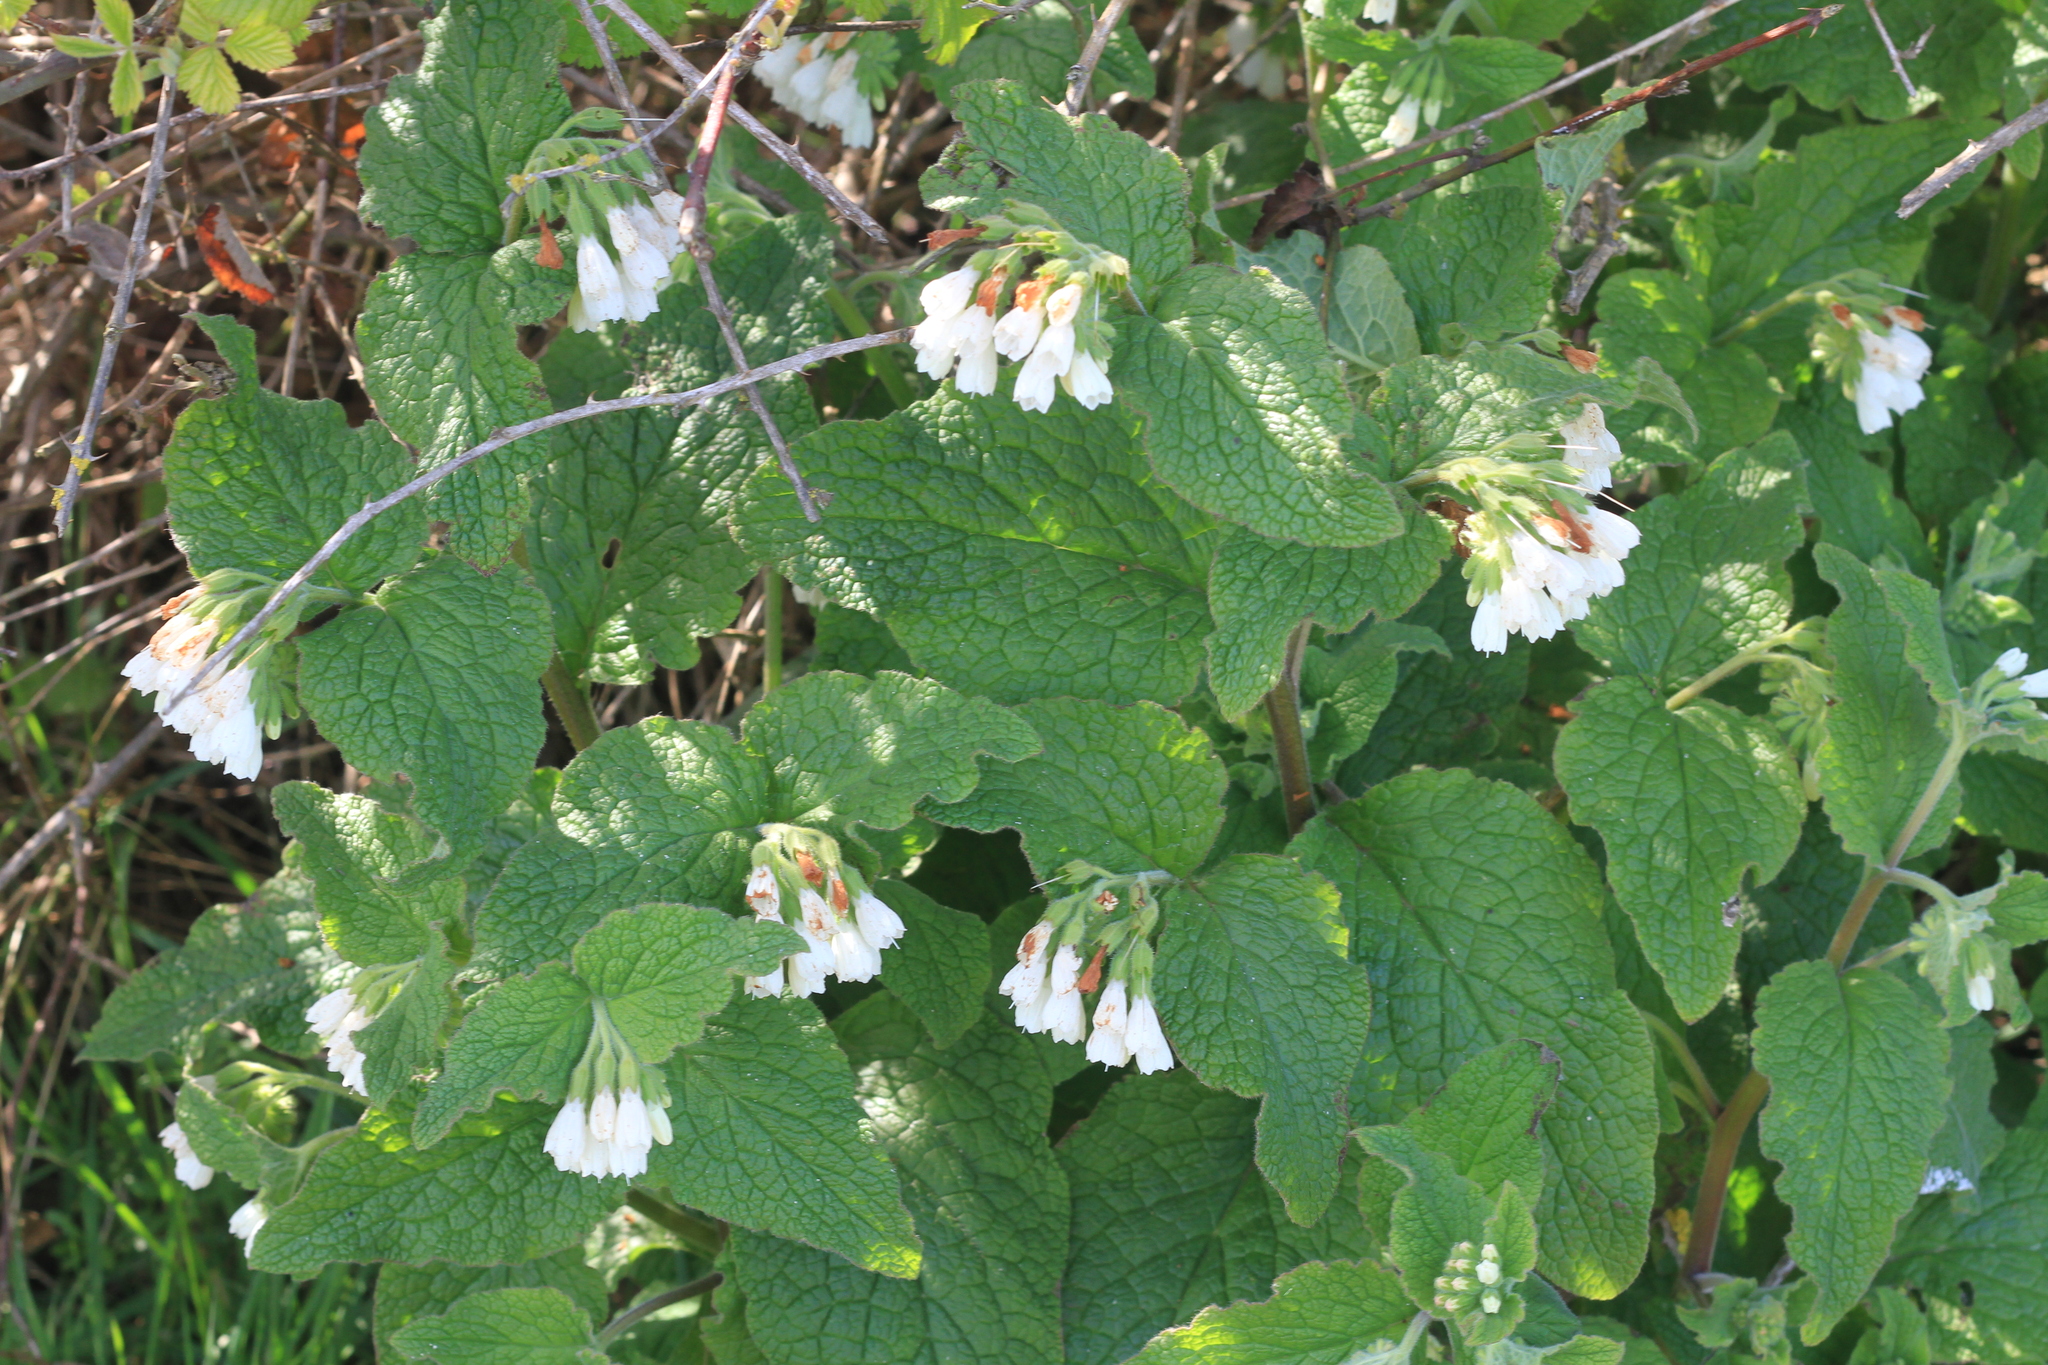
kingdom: Plantae
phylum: Tracheophyta
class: Magnoliopsida
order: Boraginales
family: Boraginaceae
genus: Symphytum
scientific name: Symphytum orientale
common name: White comfrey
